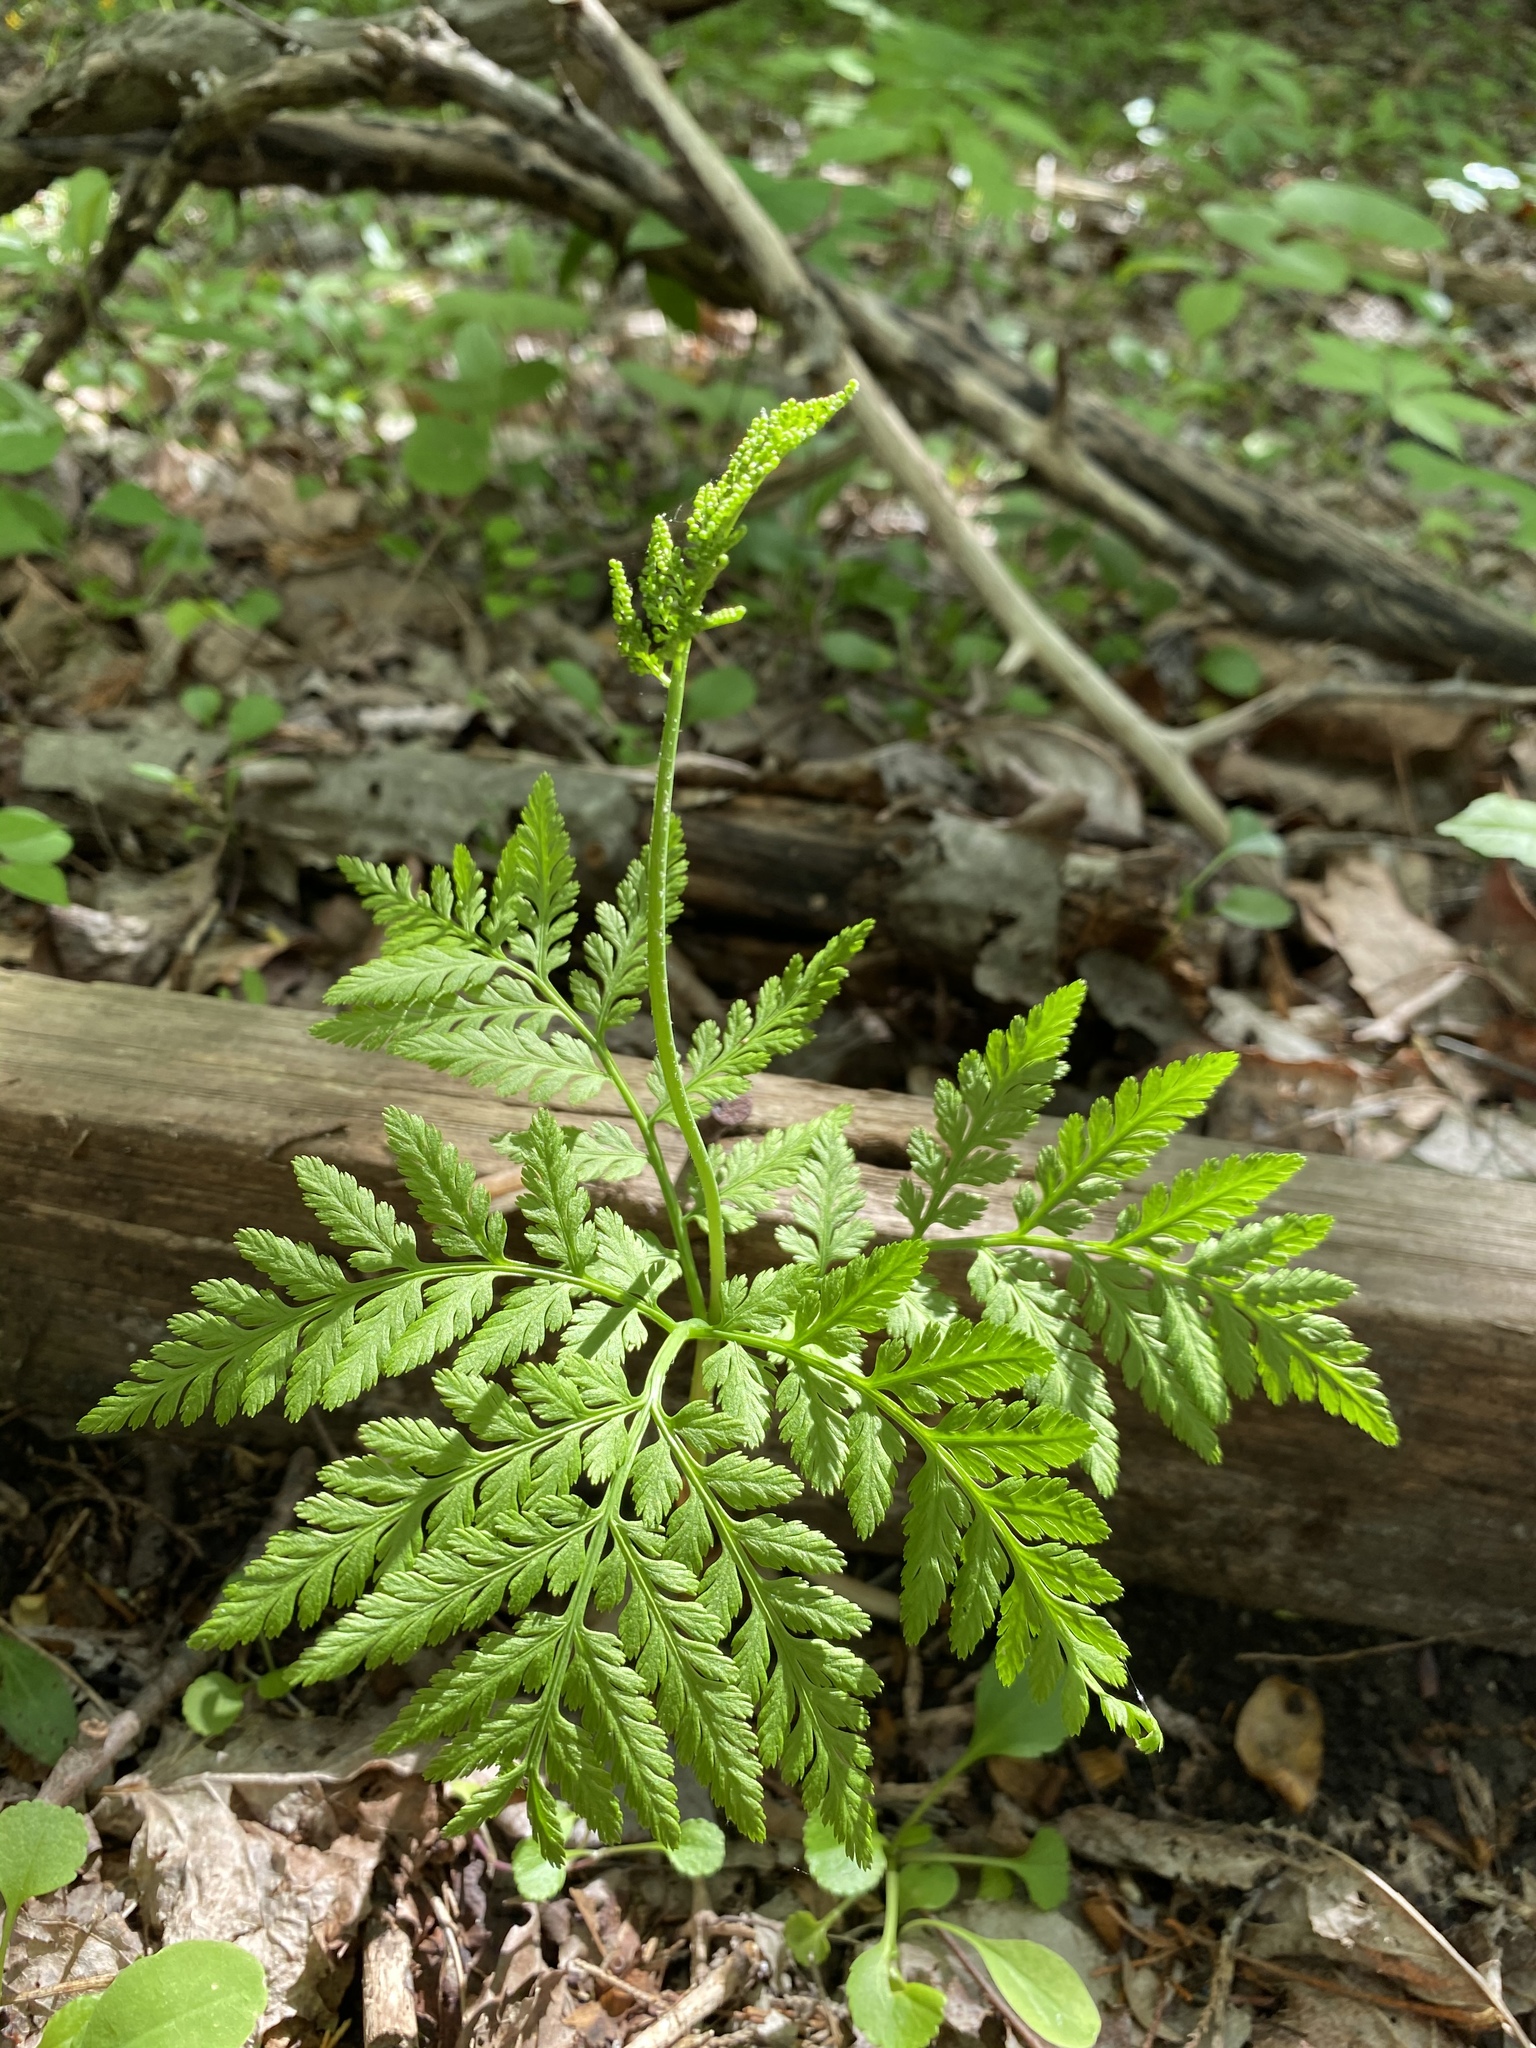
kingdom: Plantae
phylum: Tracheophyta
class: Polypodiopsida
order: Ophioglossales
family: Ophioglossaceae
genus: Botrypus
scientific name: Botrypus virginianus
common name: Common grapefern
